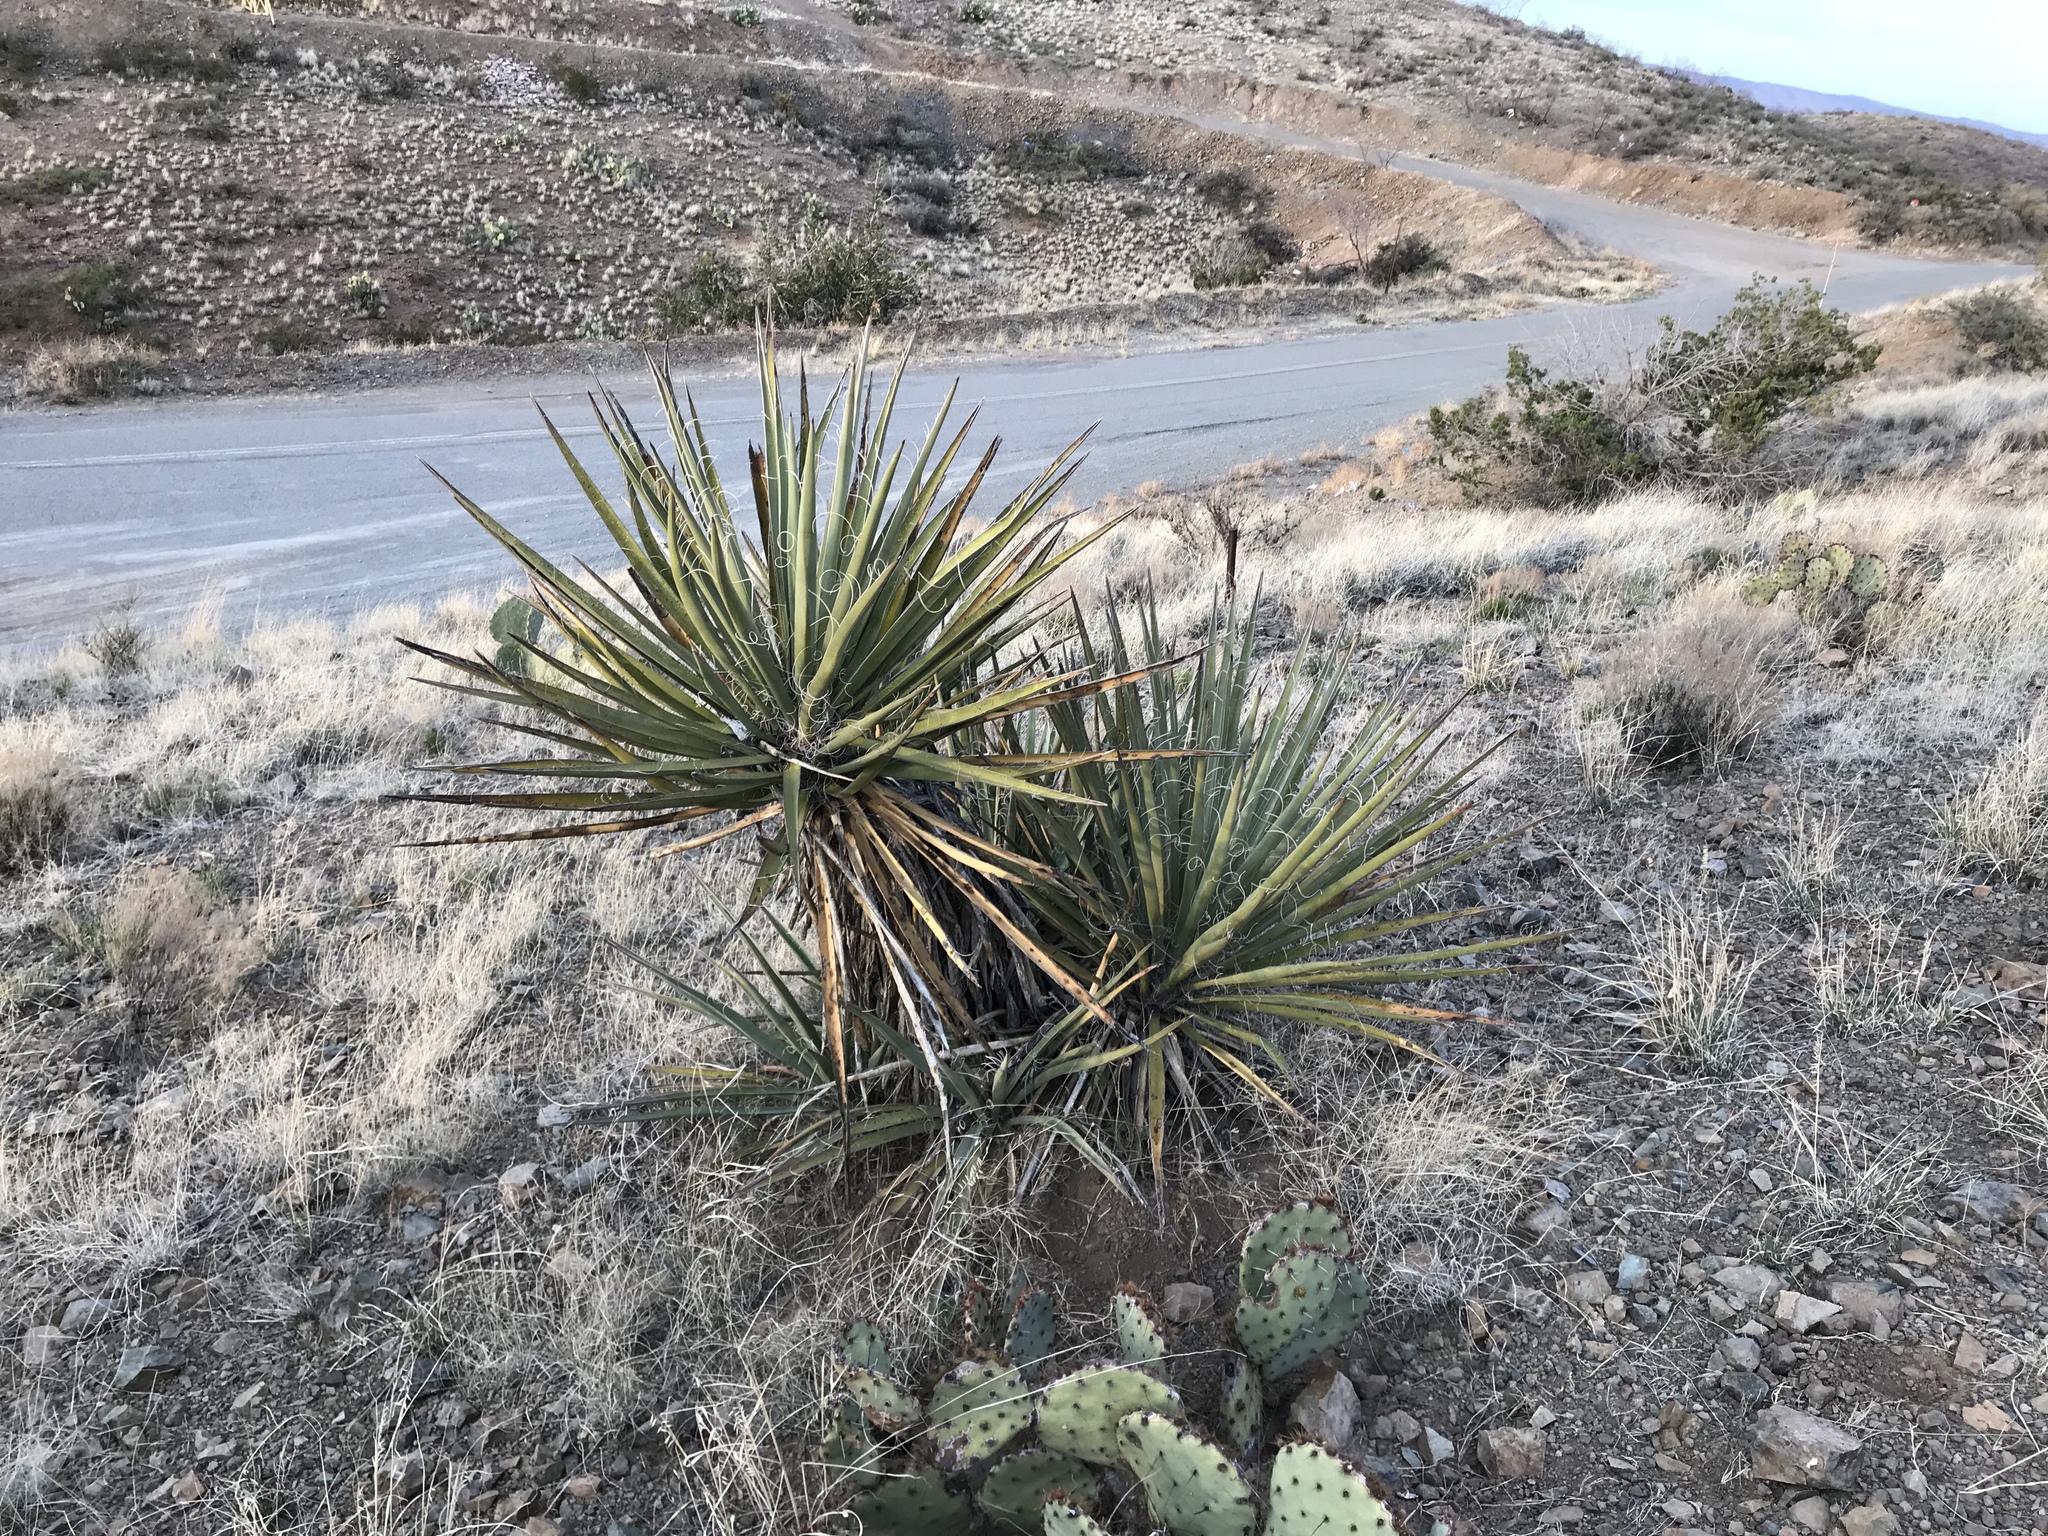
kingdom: Plantae
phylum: Tracheophyta
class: Liliopsida
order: Asparagales
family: Asparagaceae
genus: Yucca
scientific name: Yucca baccata
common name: Banana yucca
